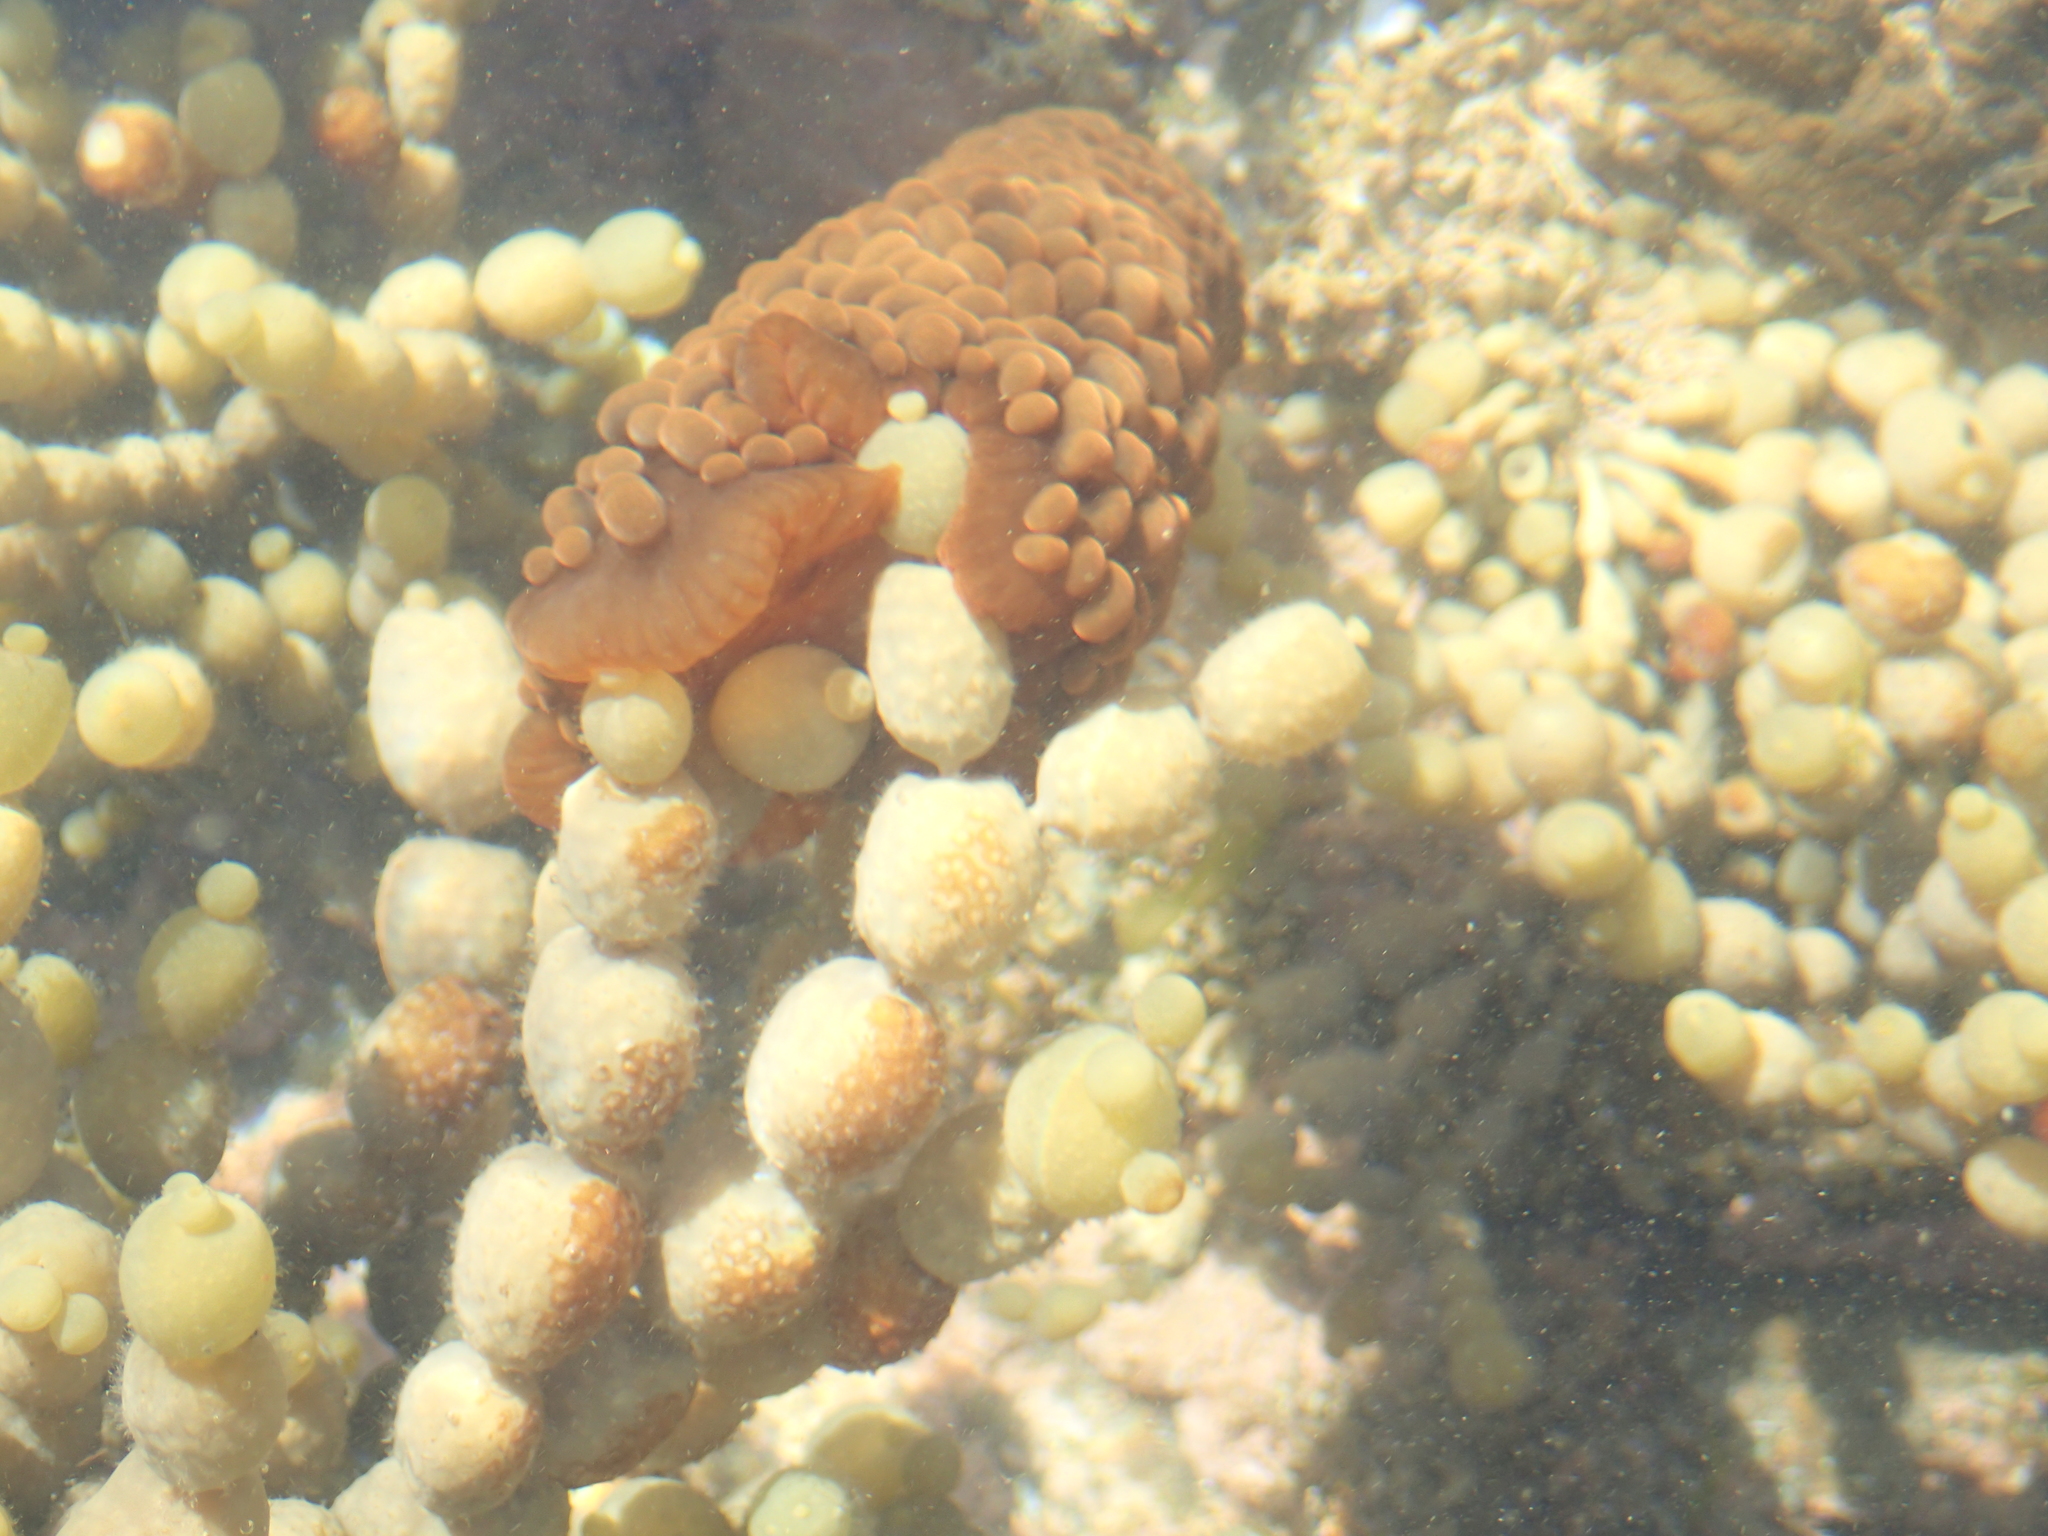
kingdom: Animalia
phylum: Cnidaria
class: Anthozoa
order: Actiniaria
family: Actiniidae
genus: Phlyctenactis
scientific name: Phlyctenactis tuberculosa
